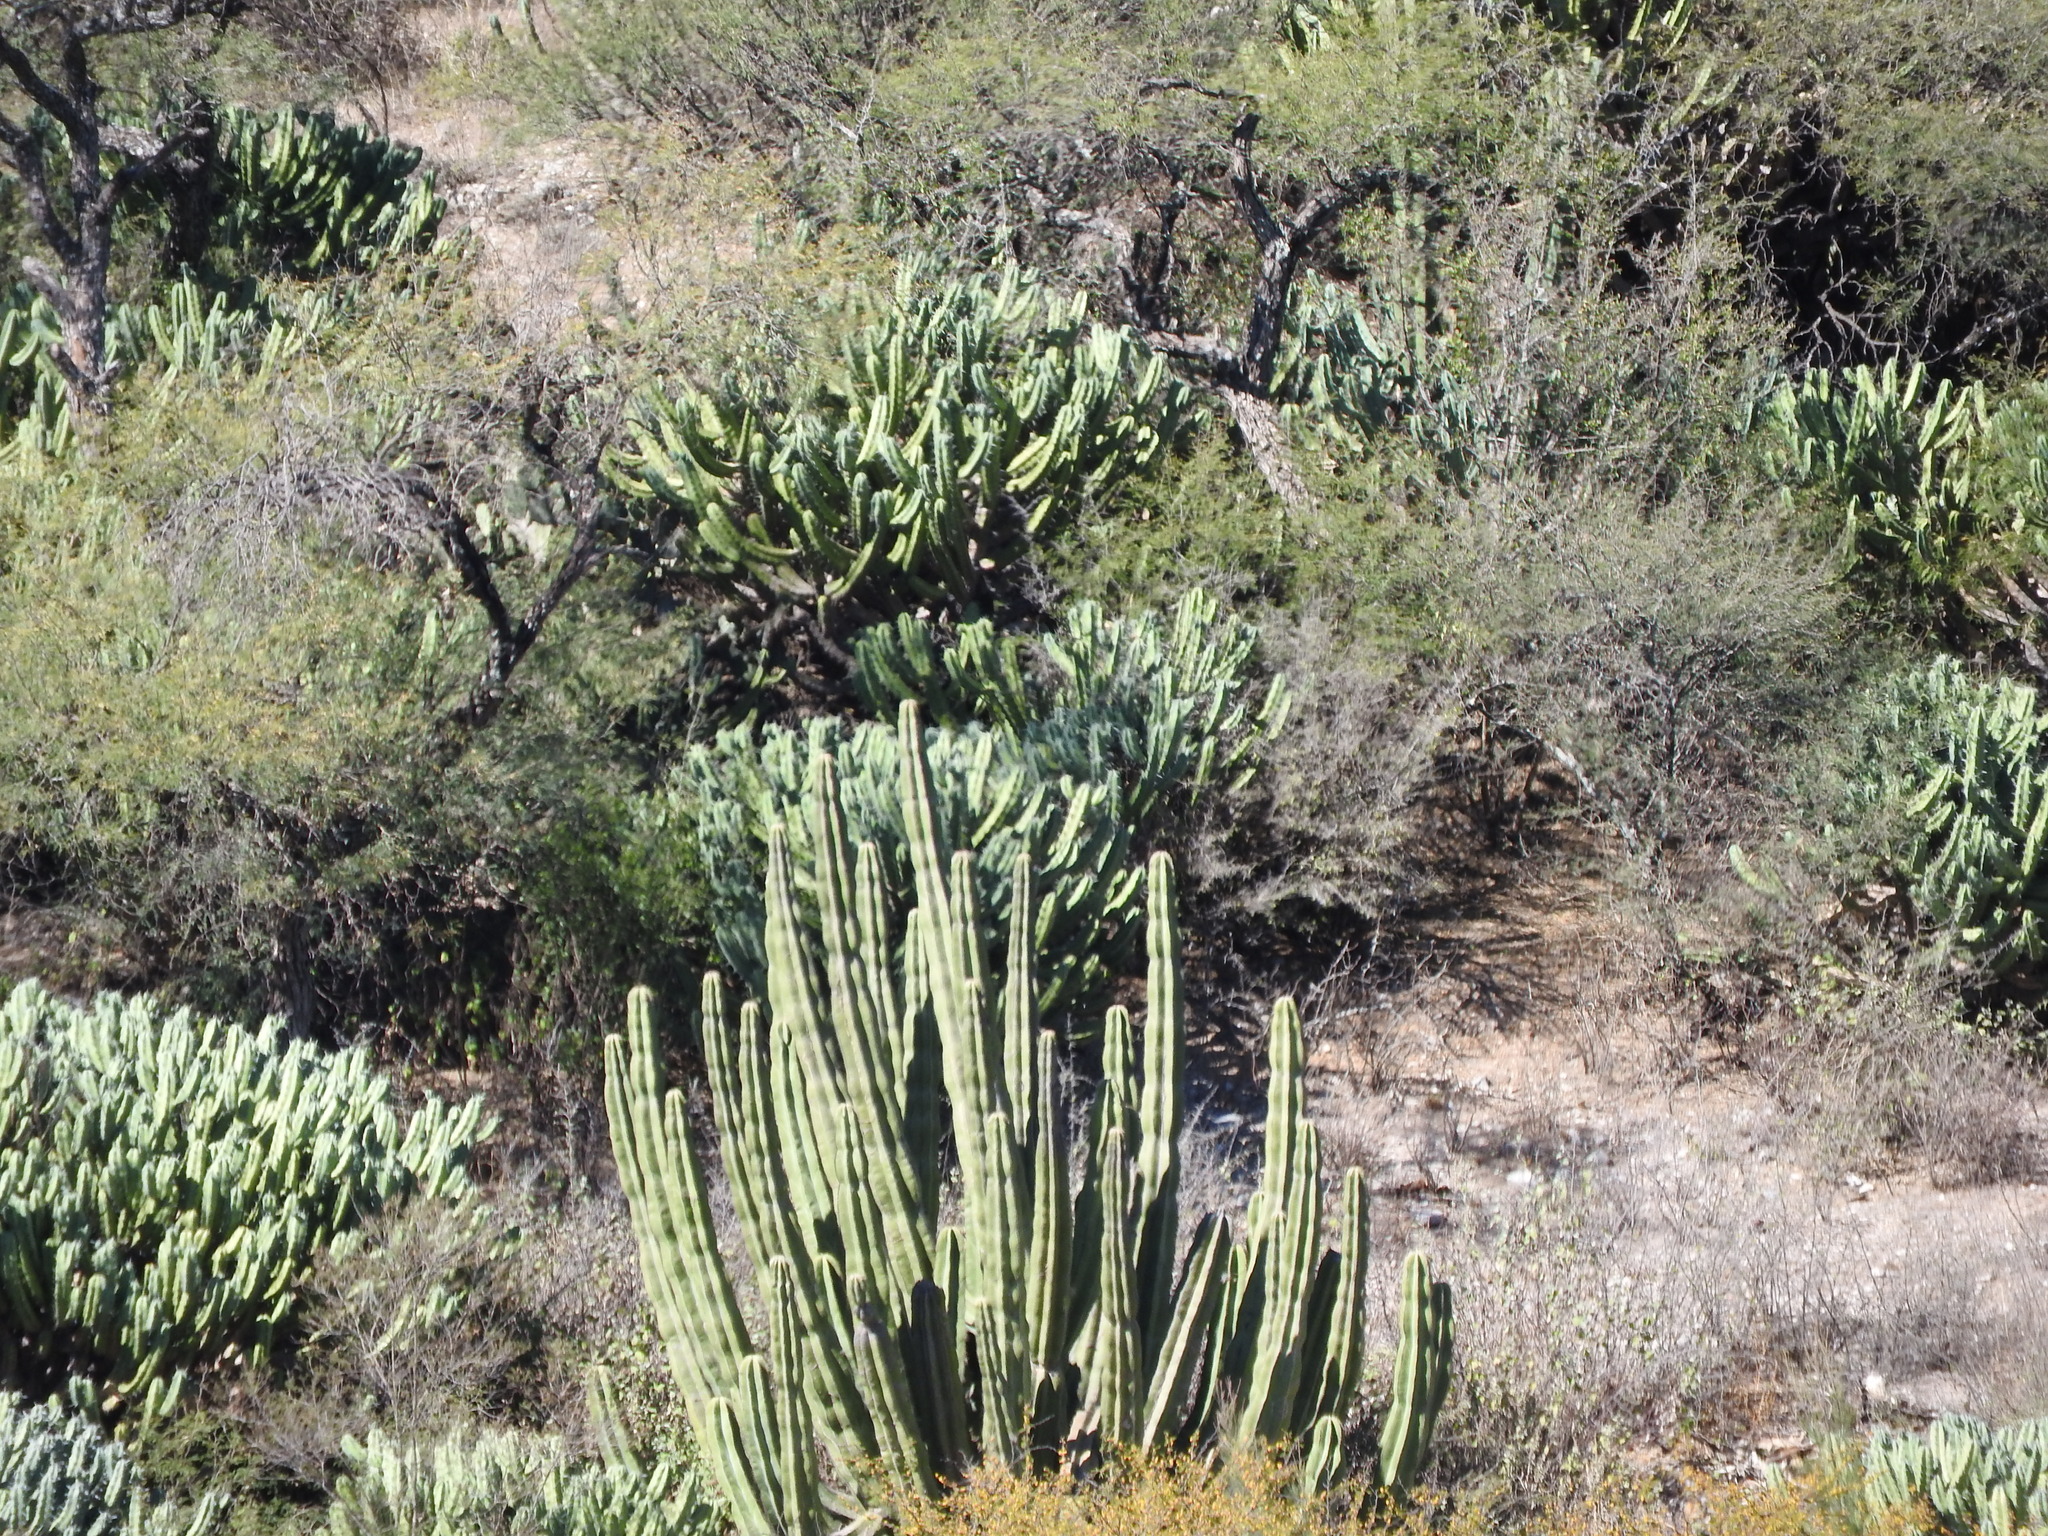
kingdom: Plantae
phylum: Tracheophyta
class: Magnoliopsida
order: Caryophyllales
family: Cactaceae
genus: Stenocereus
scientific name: Stenocereus dumortieri
